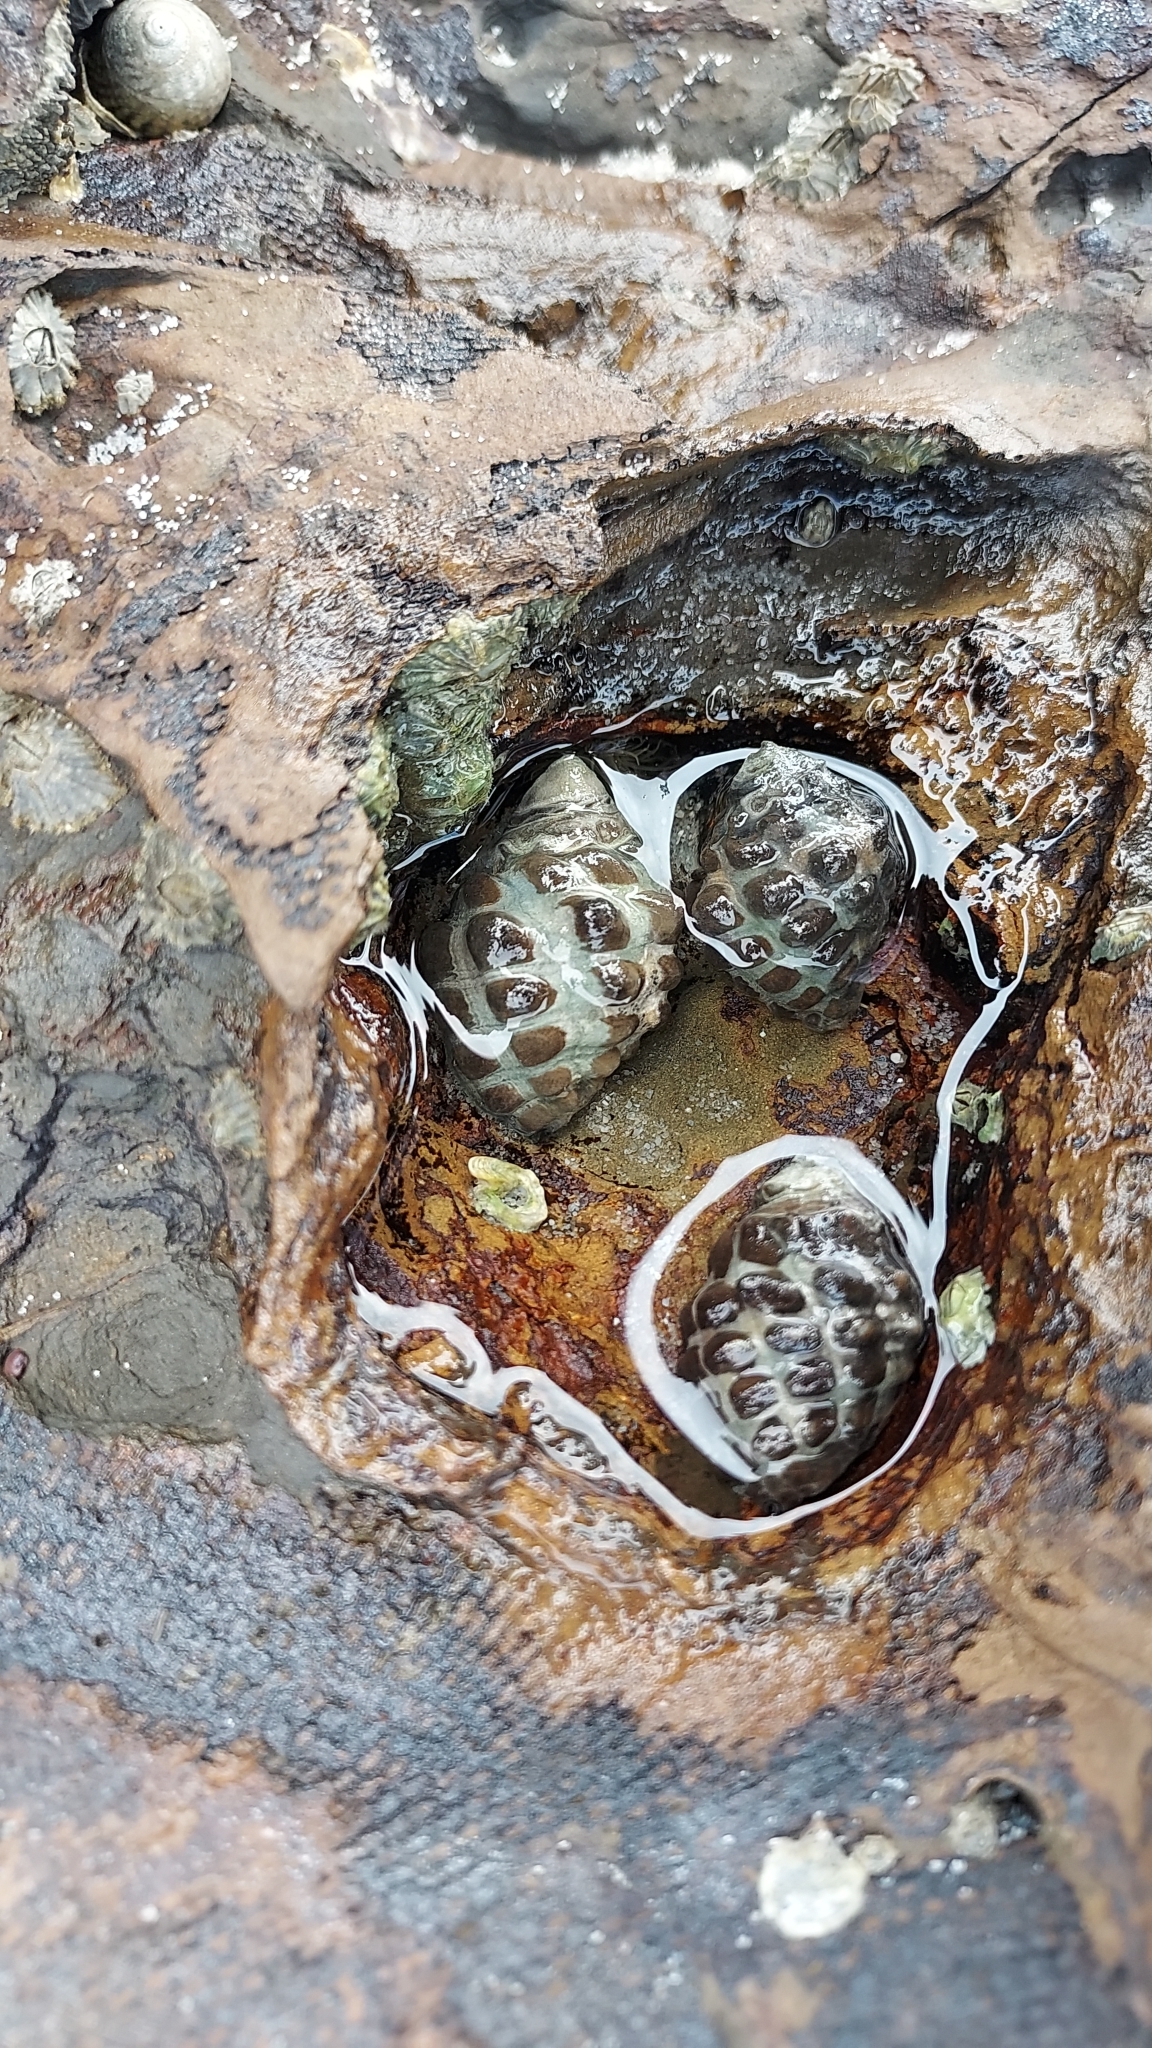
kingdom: Animalia
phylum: Mollusca
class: Gastropoda
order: Neogastropoda
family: Muricidae
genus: Tenguella
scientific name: Tenguella marginalba
